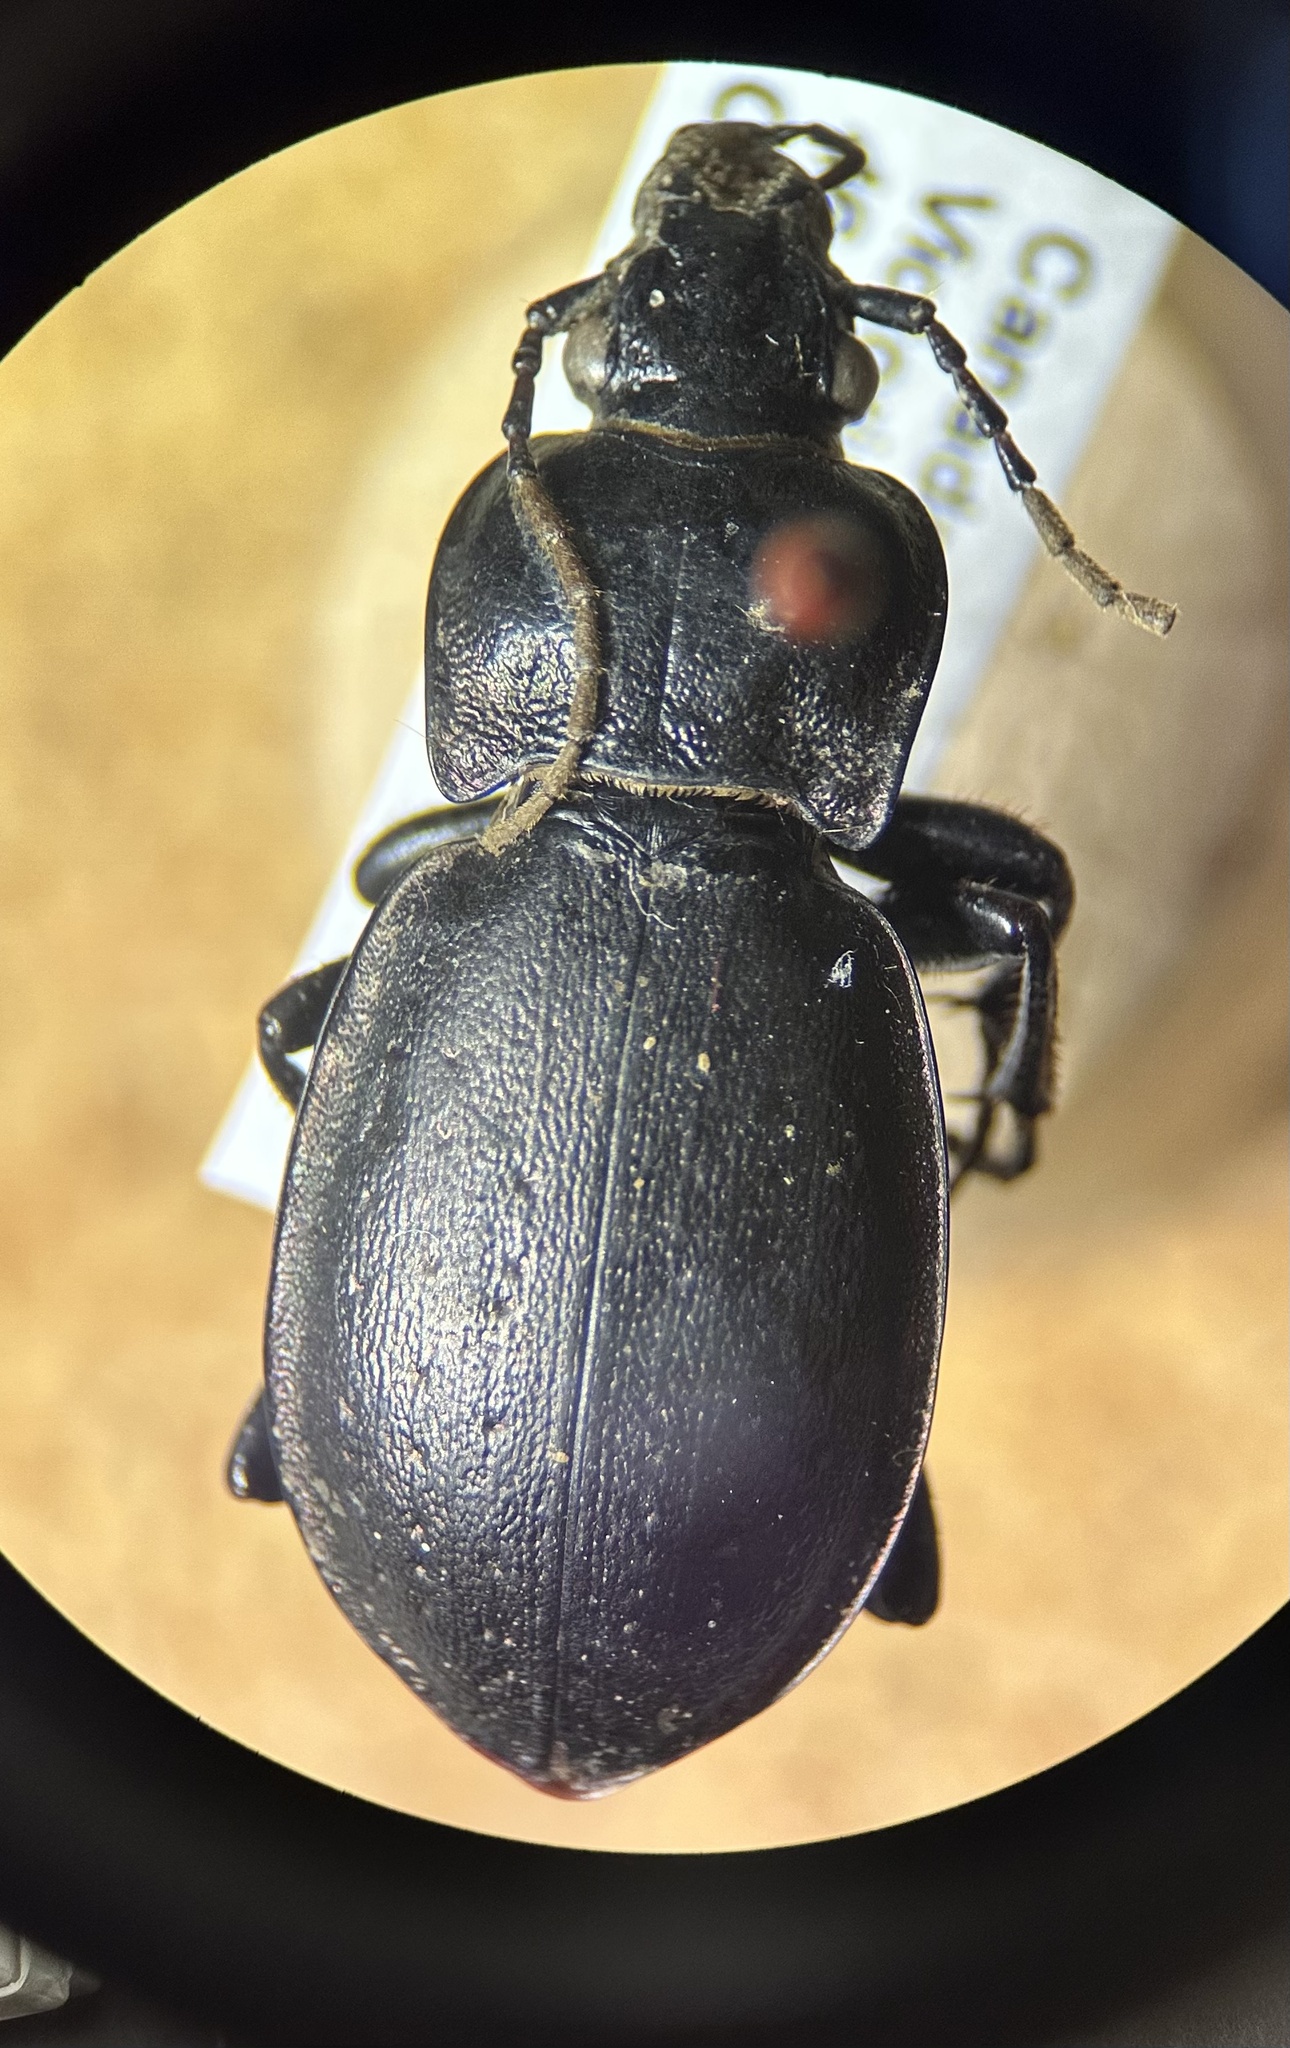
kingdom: Animalia
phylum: Arthropoda
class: Insecta
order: Coleoptera
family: Carabidae
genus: Carabus
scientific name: Carabus nemoralis
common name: European ground beetle
